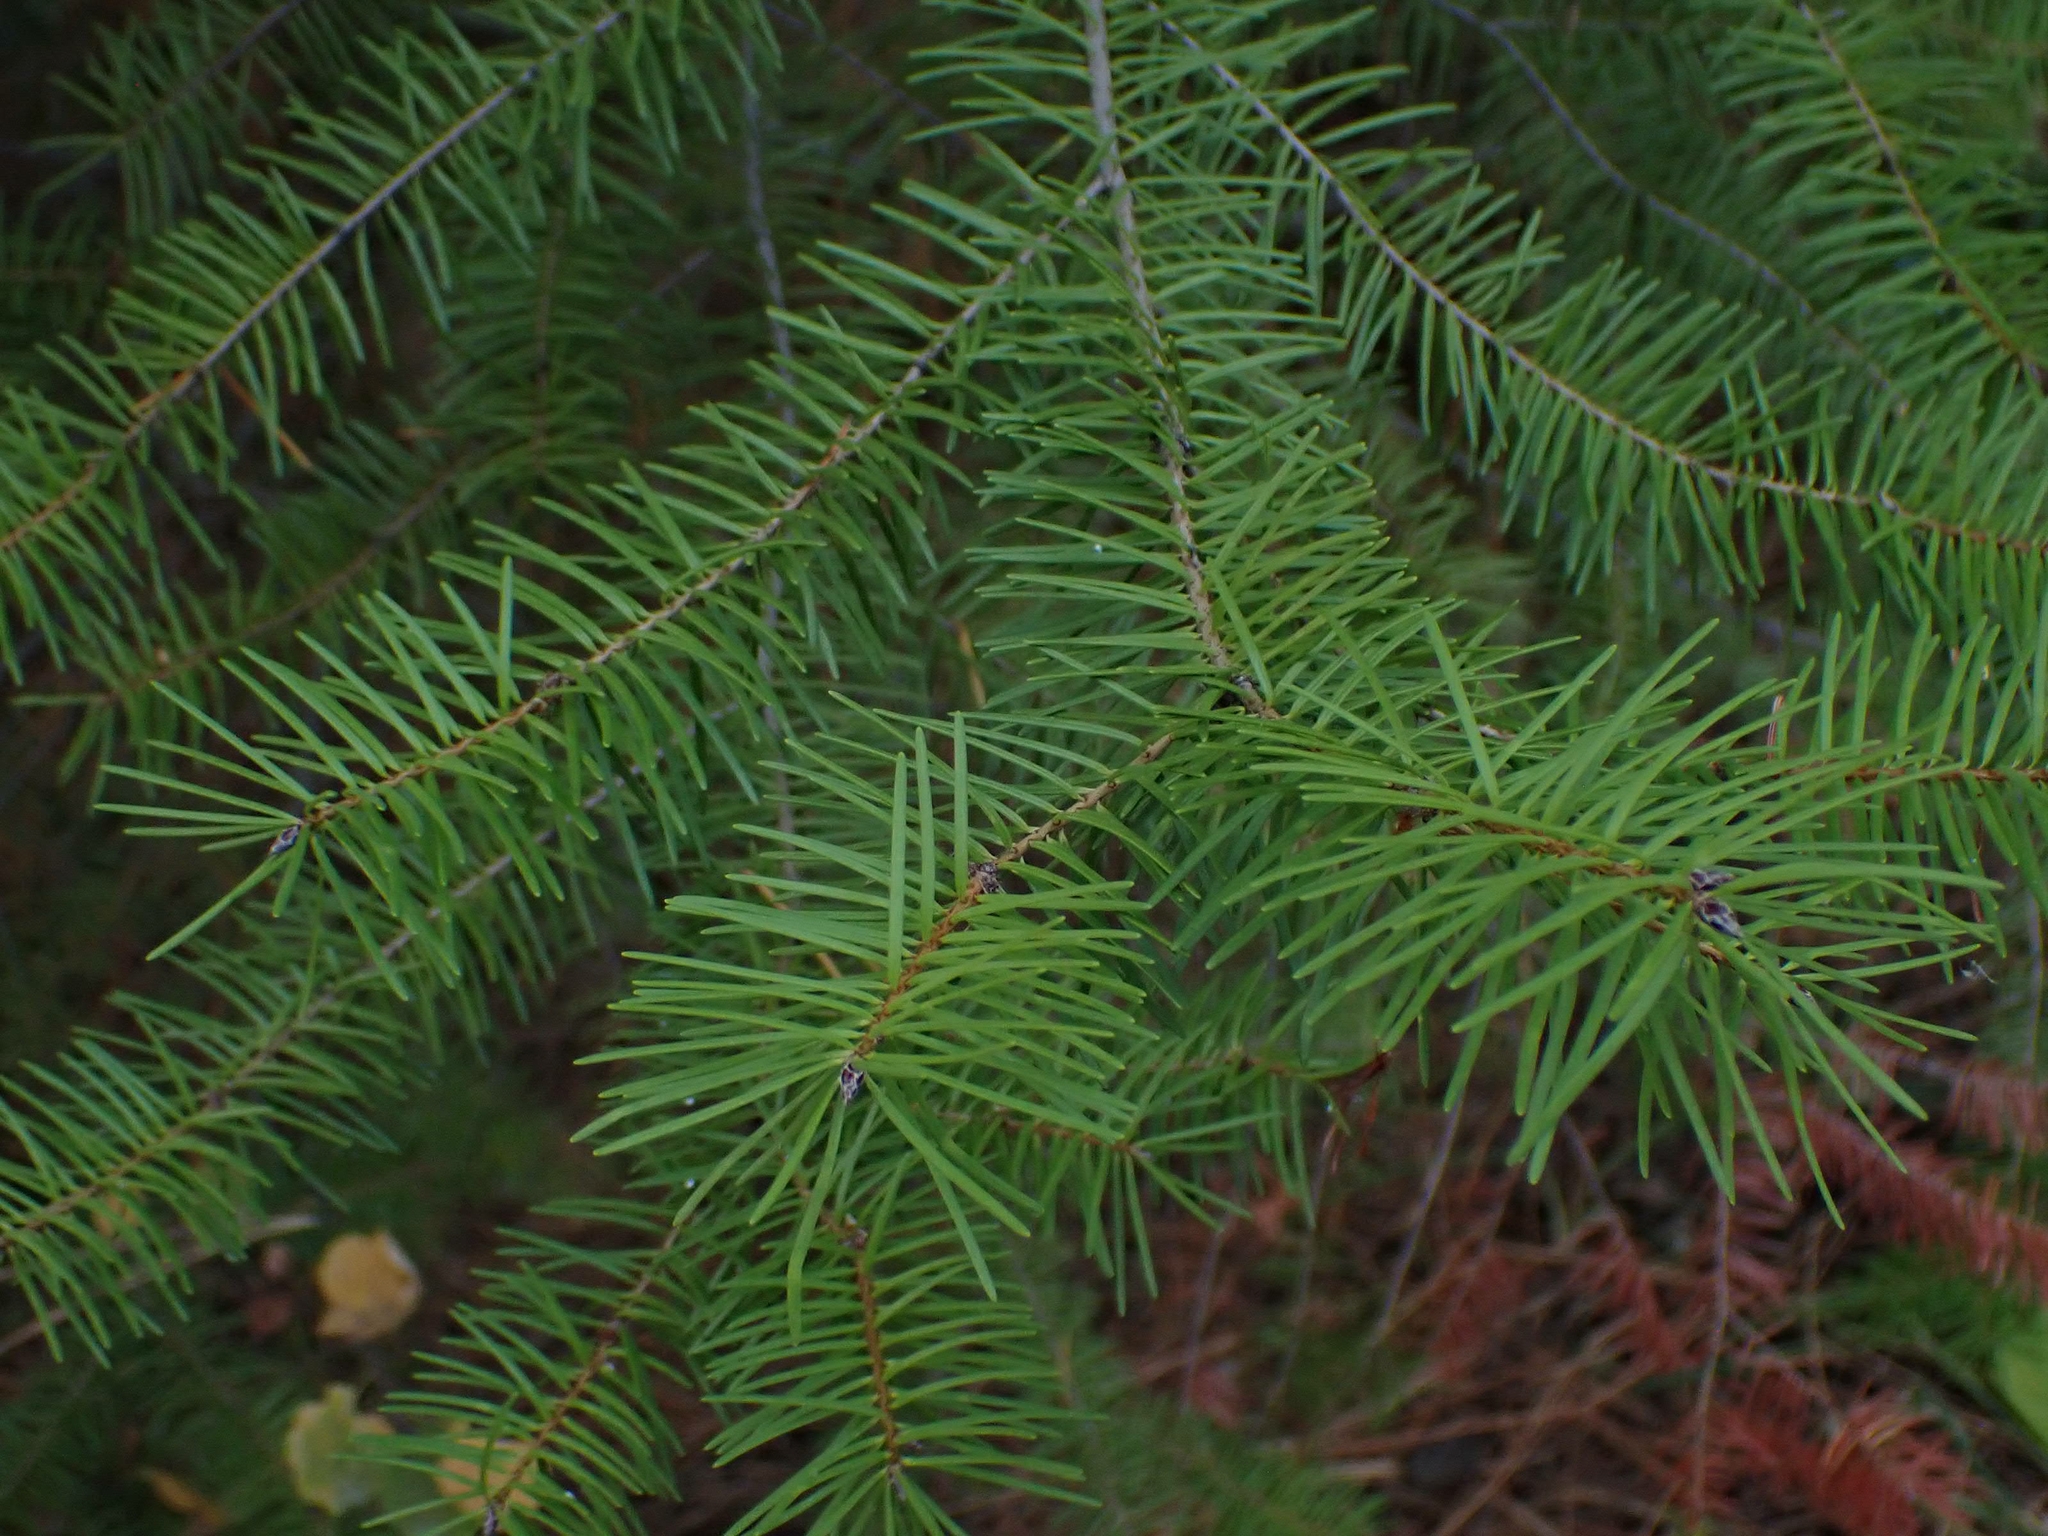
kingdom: Plantae
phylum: Tracheophyta
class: Pinopsida
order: Pinales
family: Pinaceae
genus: Pseudotsuga
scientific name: Pseudotsuga menziesii
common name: Douglas fir
